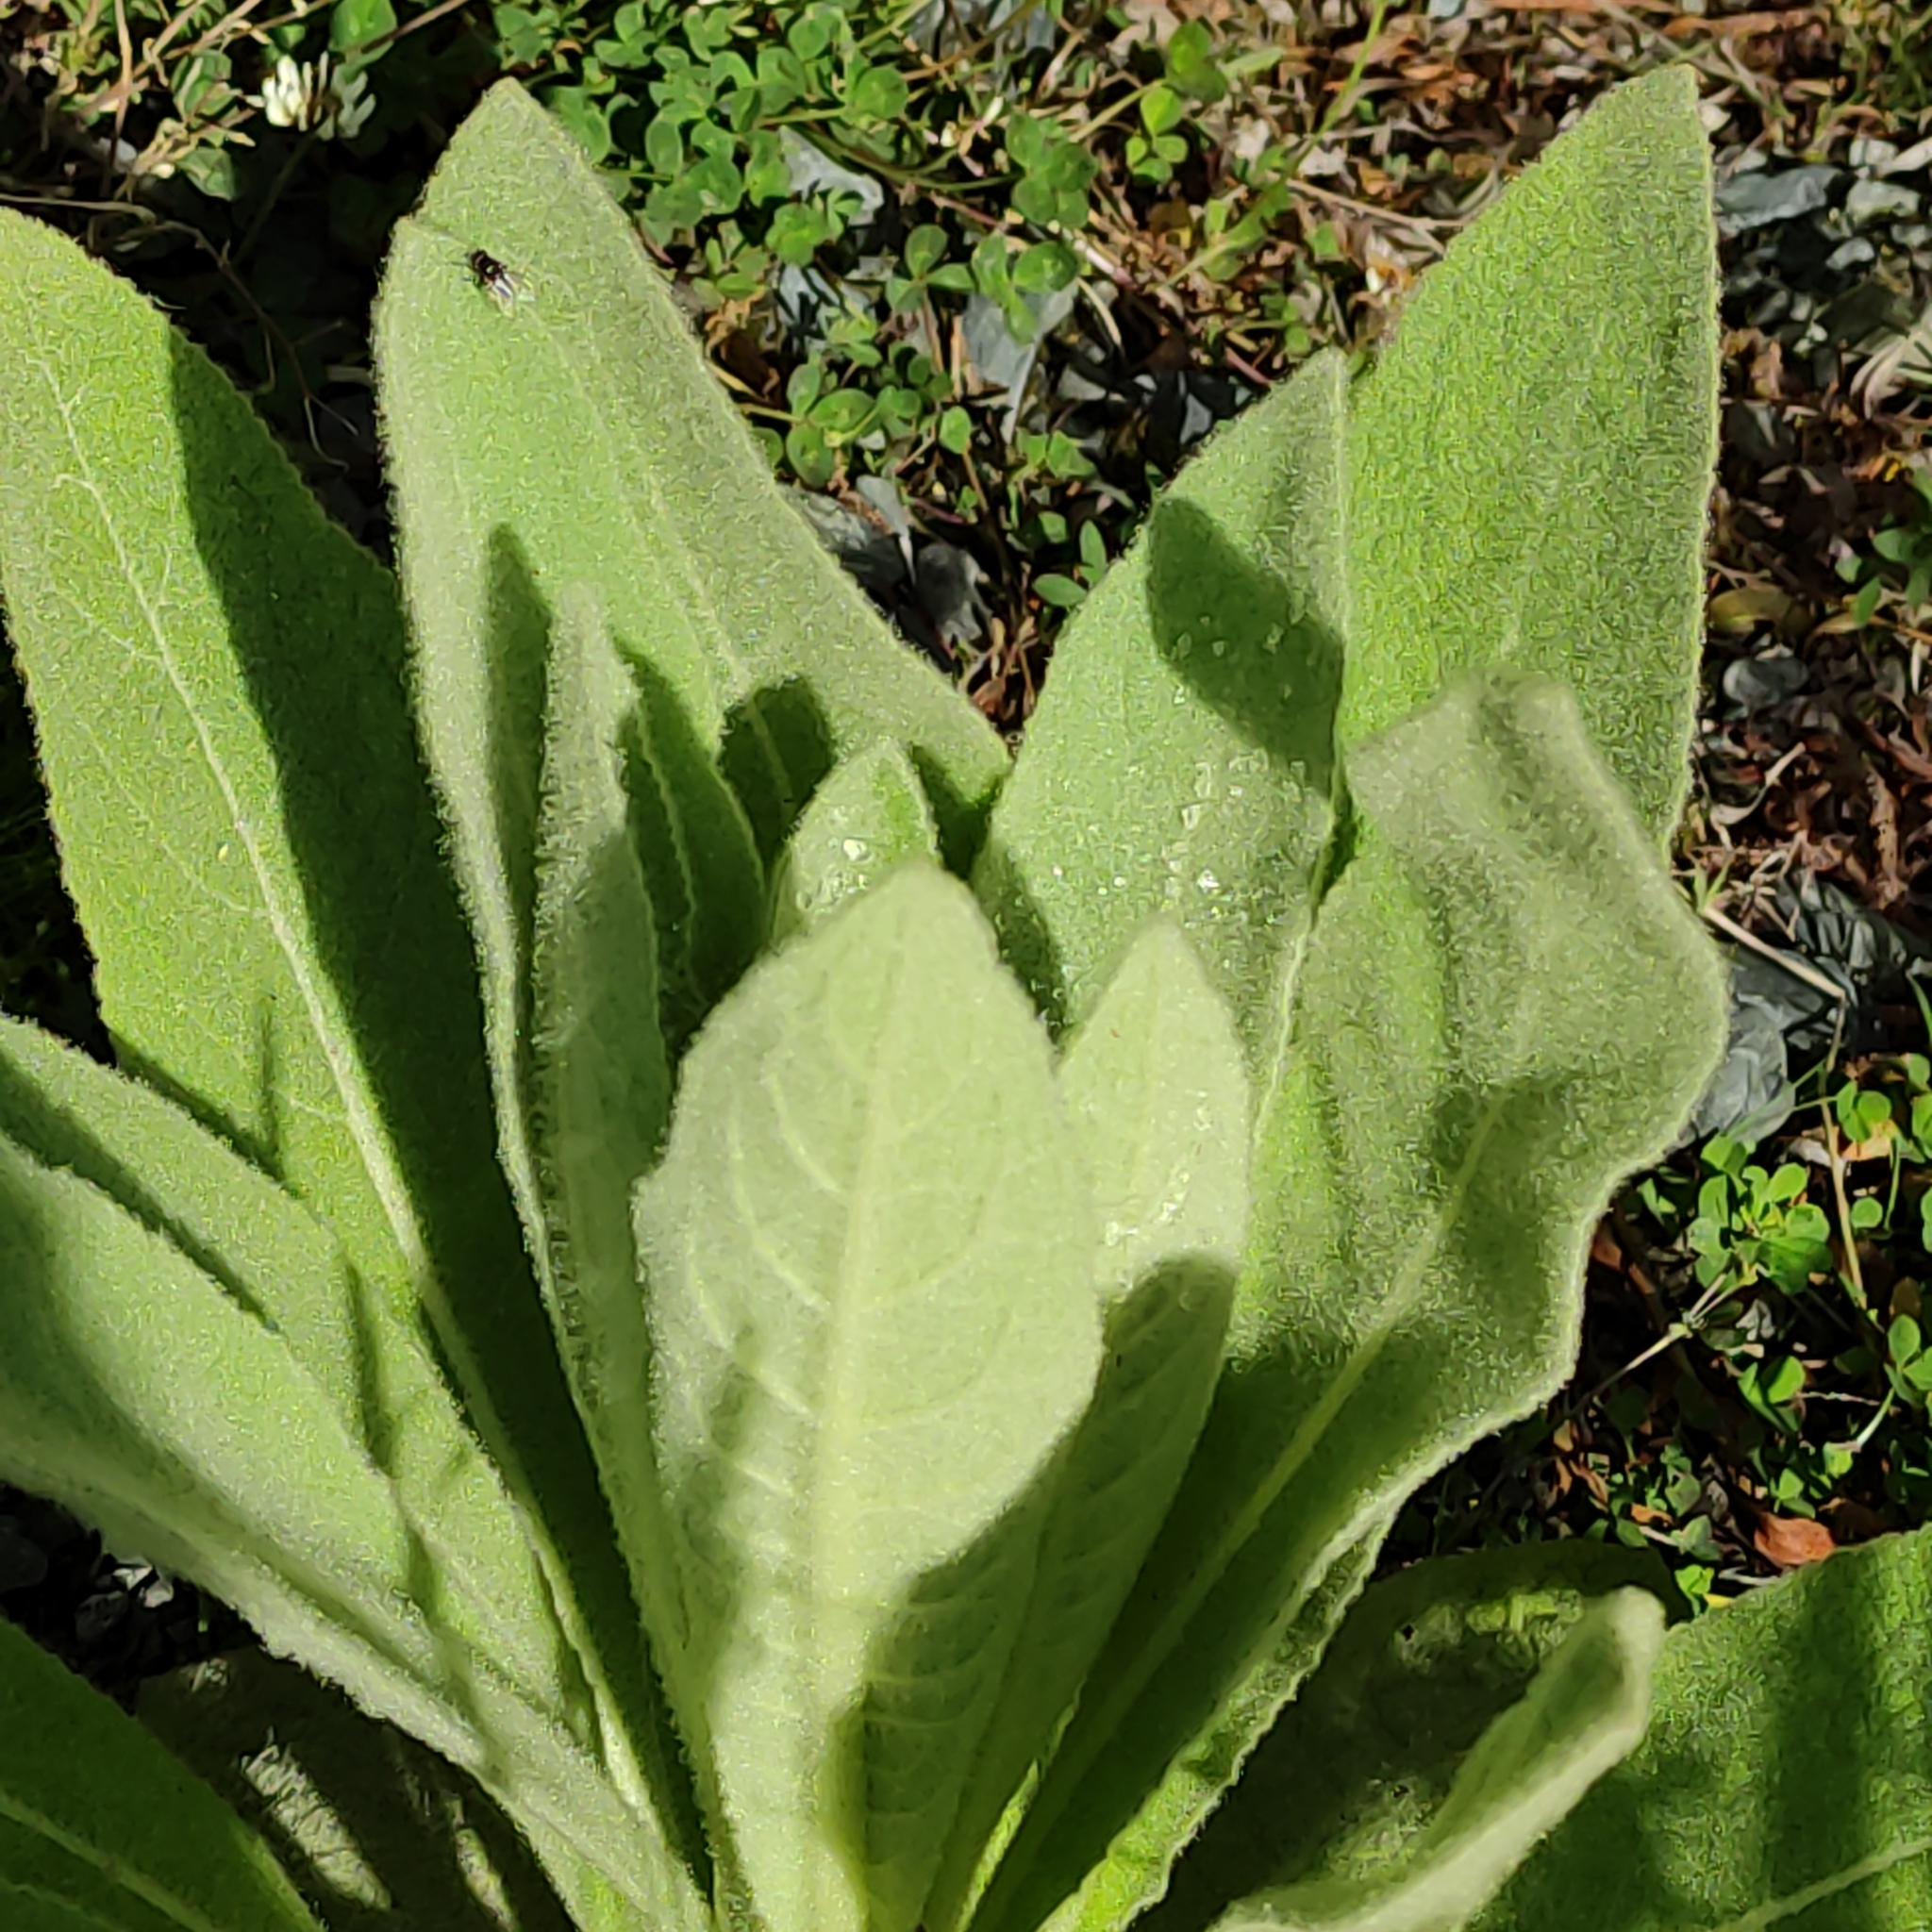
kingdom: Plantae
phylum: Tracheophyta
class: Magnoliopsida
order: Lamiales
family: Scrophulariaceae
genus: Verbascum
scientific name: Verbascum thapsus
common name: Common mullein
